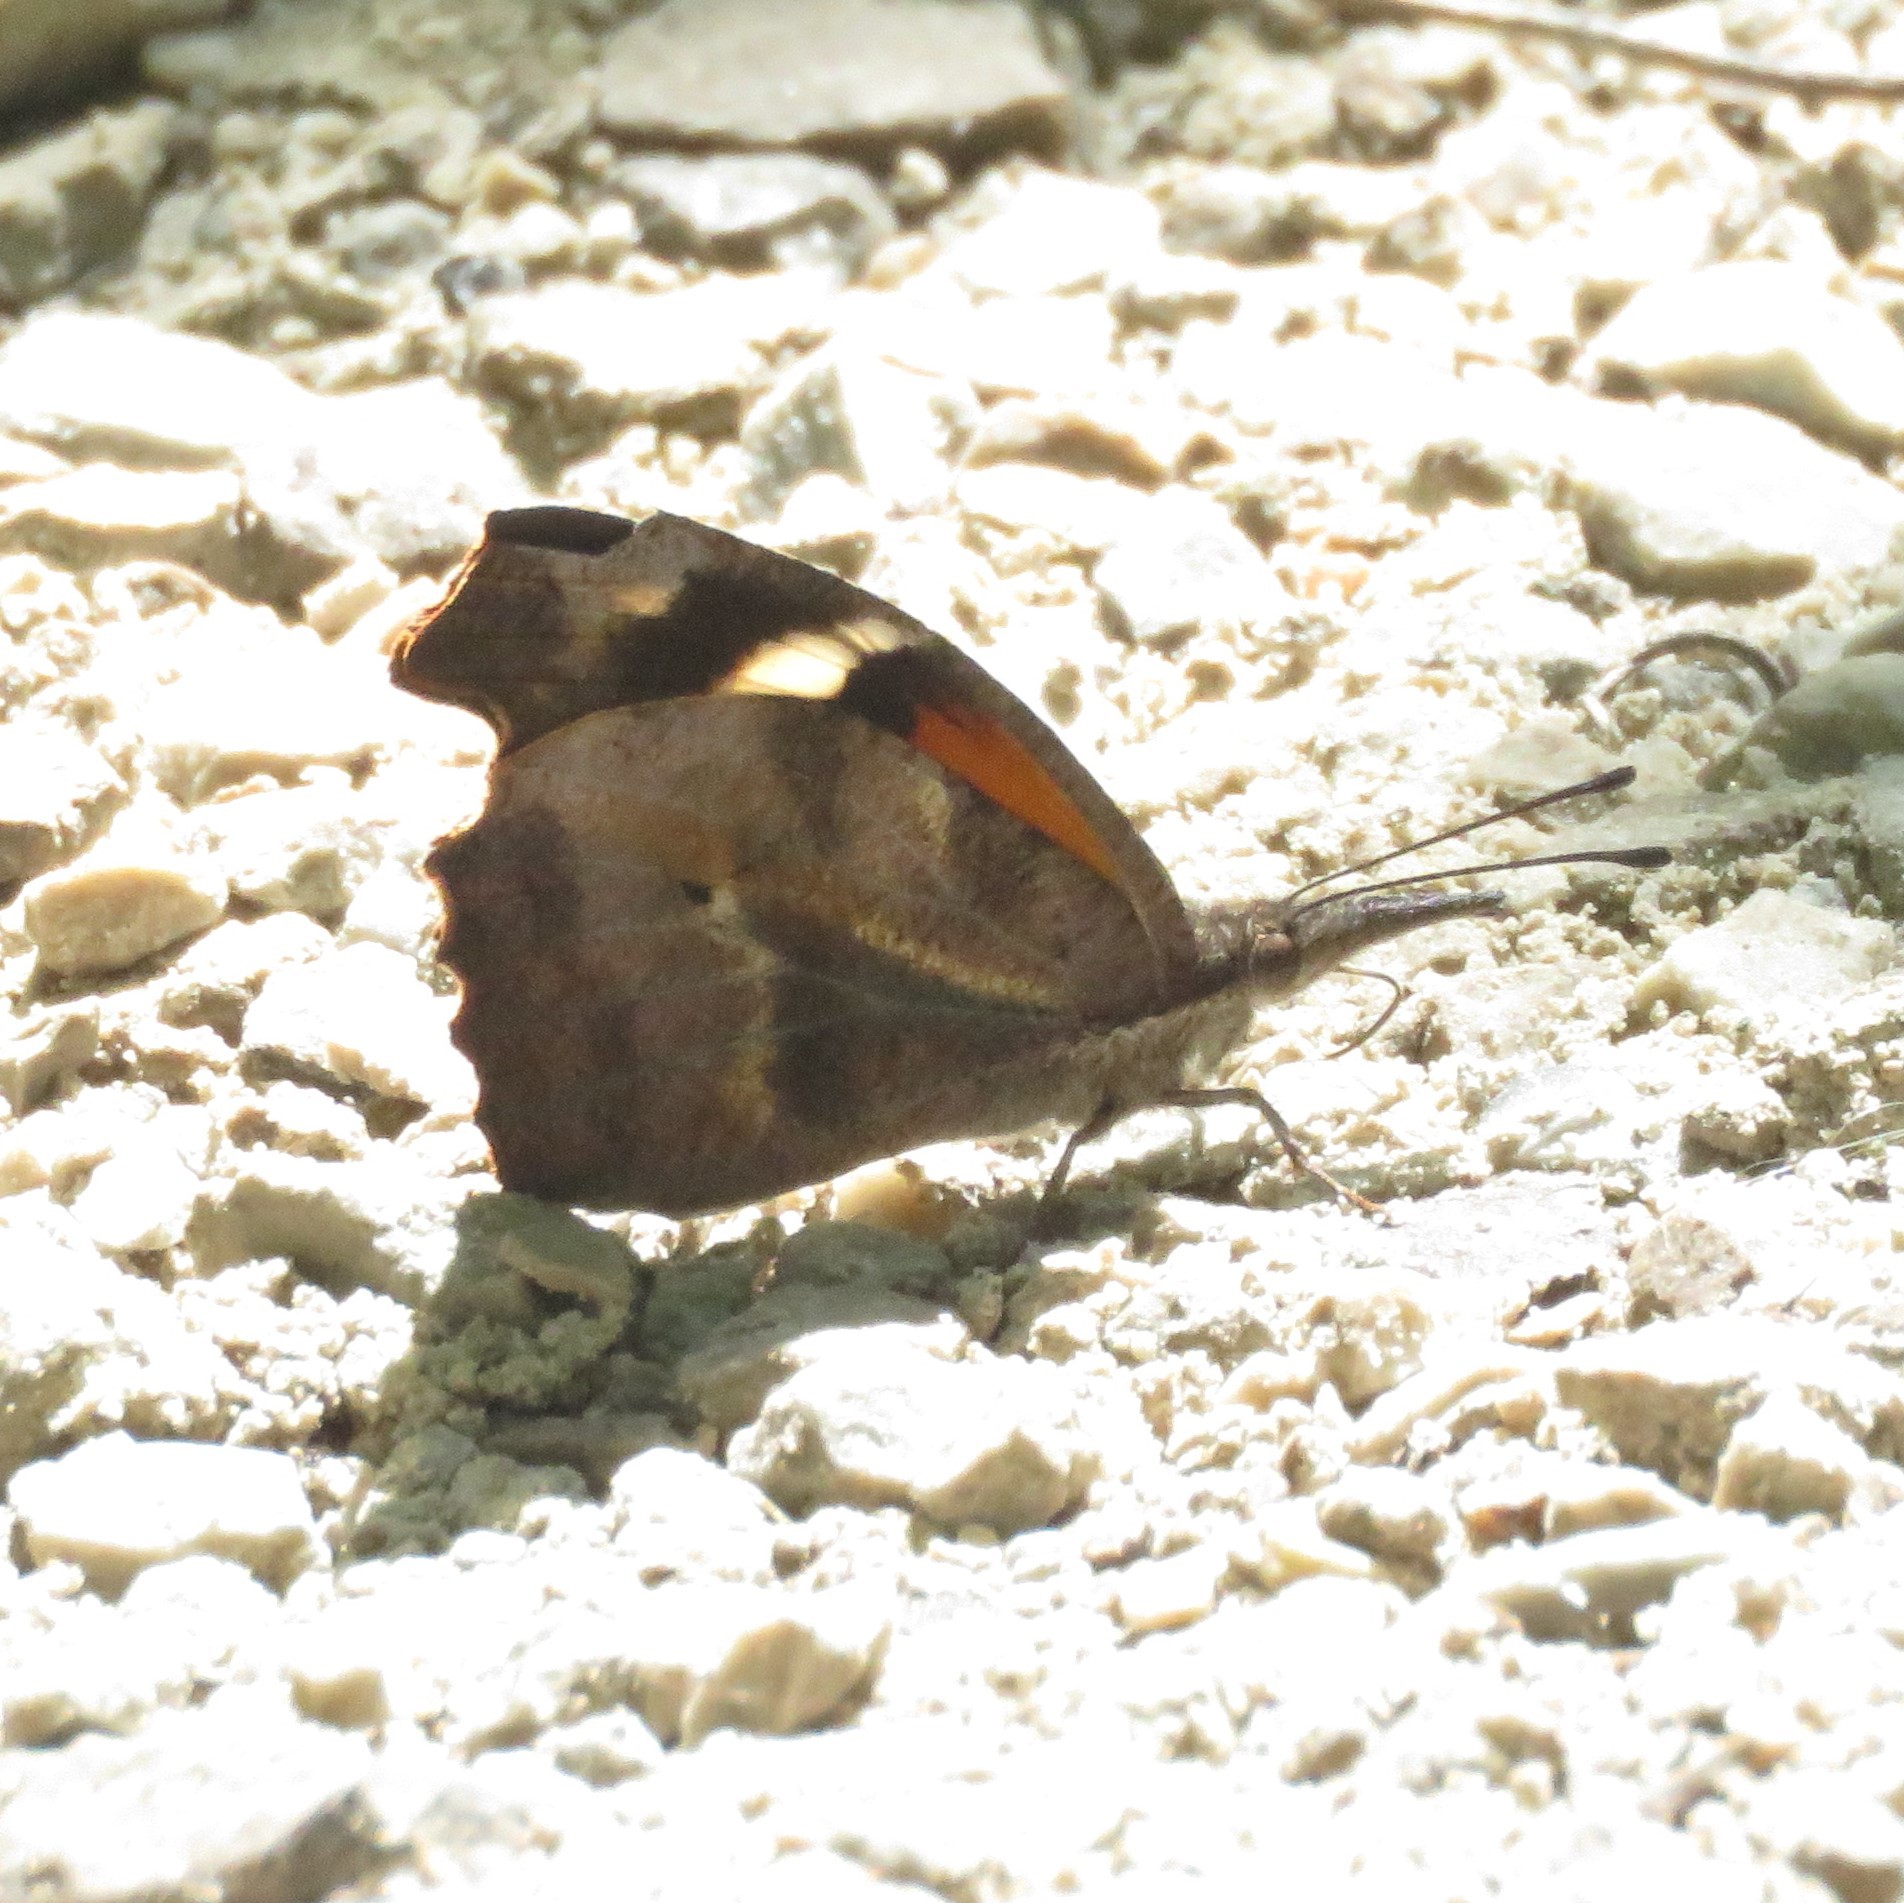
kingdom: Animalia
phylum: Arthropoda
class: Insecta
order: Lepidoptera
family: Nymphalidae
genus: Libytheana
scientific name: Libytheana carinenta
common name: American snout
